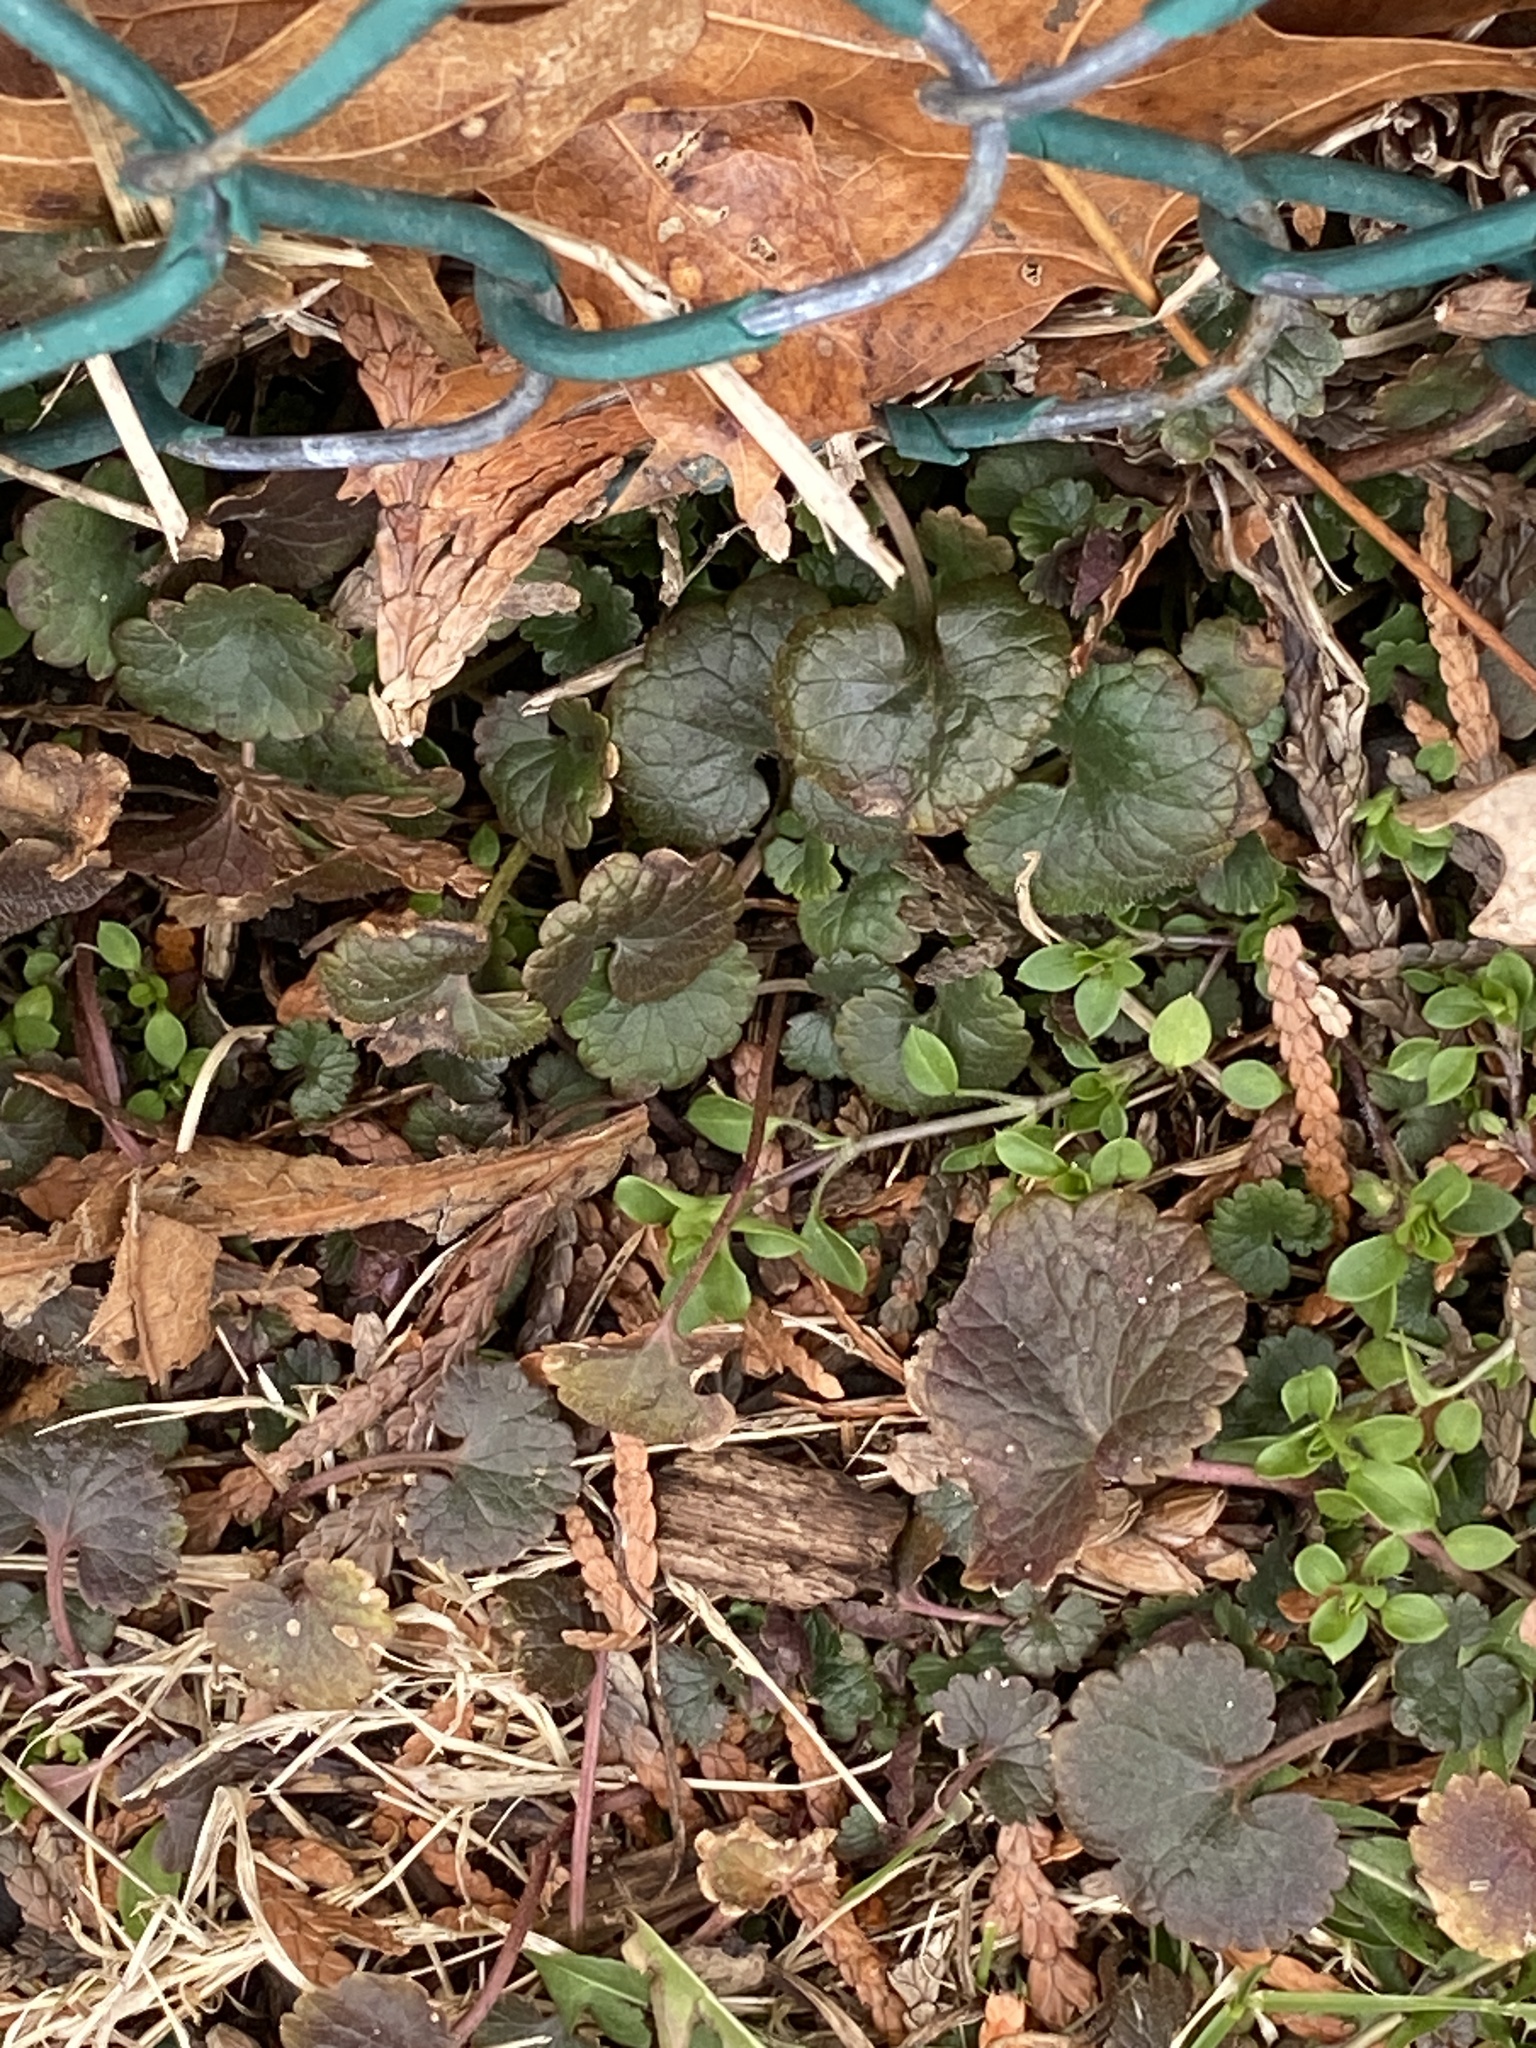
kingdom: Plantae
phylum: Tracheophyta
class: Magnoliopsida
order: Lamiales
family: Lamiaceae
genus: Glechoma
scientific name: Glechoma hederacea
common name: Ground ivy
